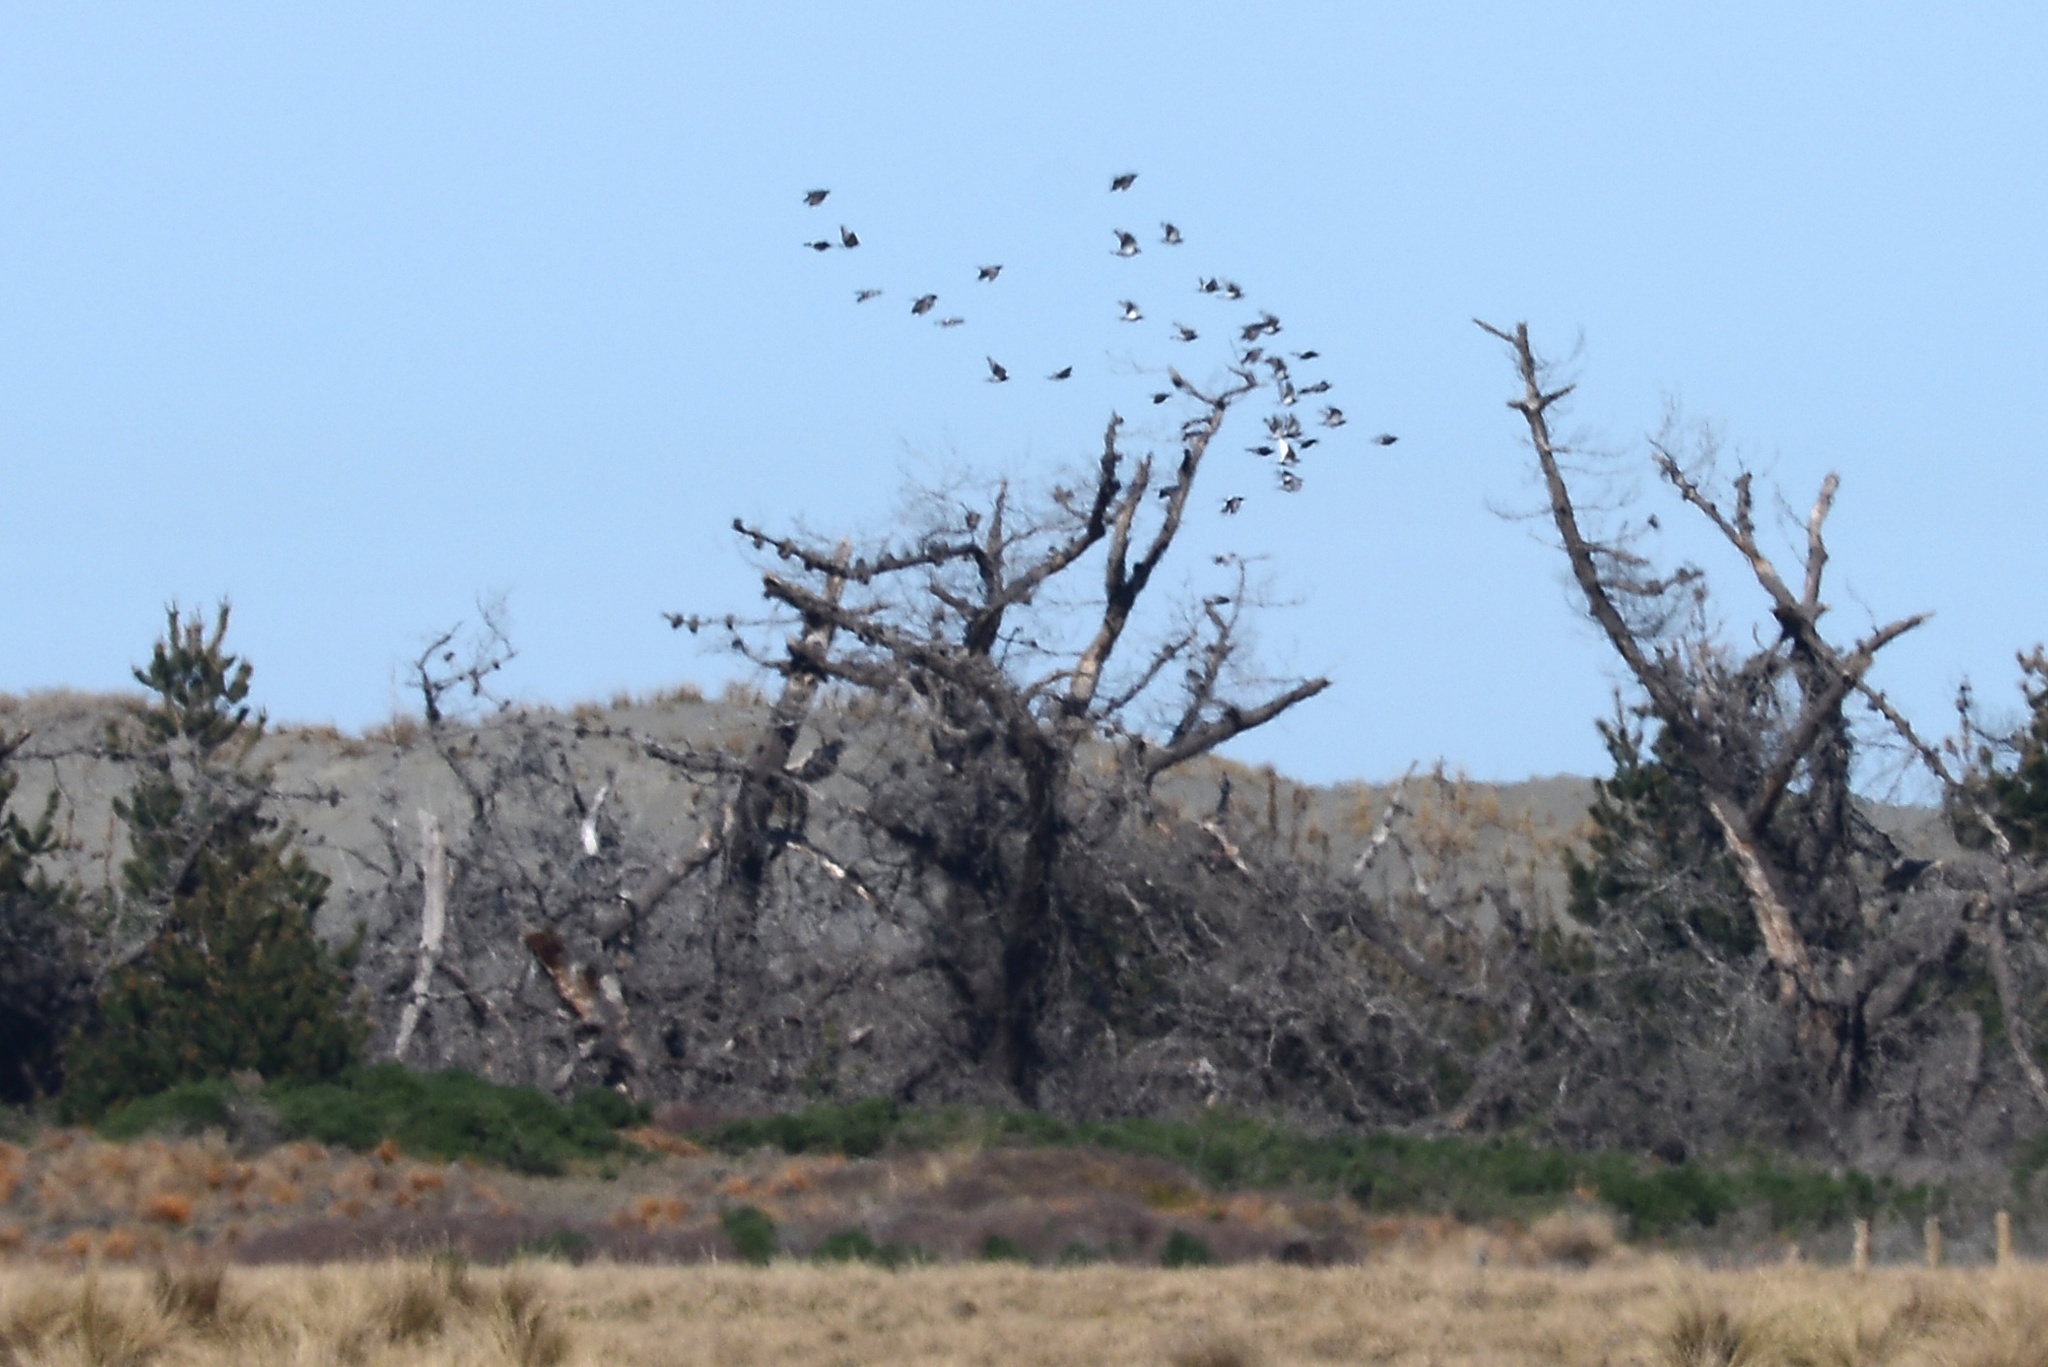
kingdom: Animalia
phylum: Chordata
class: Aves
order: Columbiformes
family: Columbidae
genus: Columba
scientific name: Columba livia
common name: Rock pigeon
